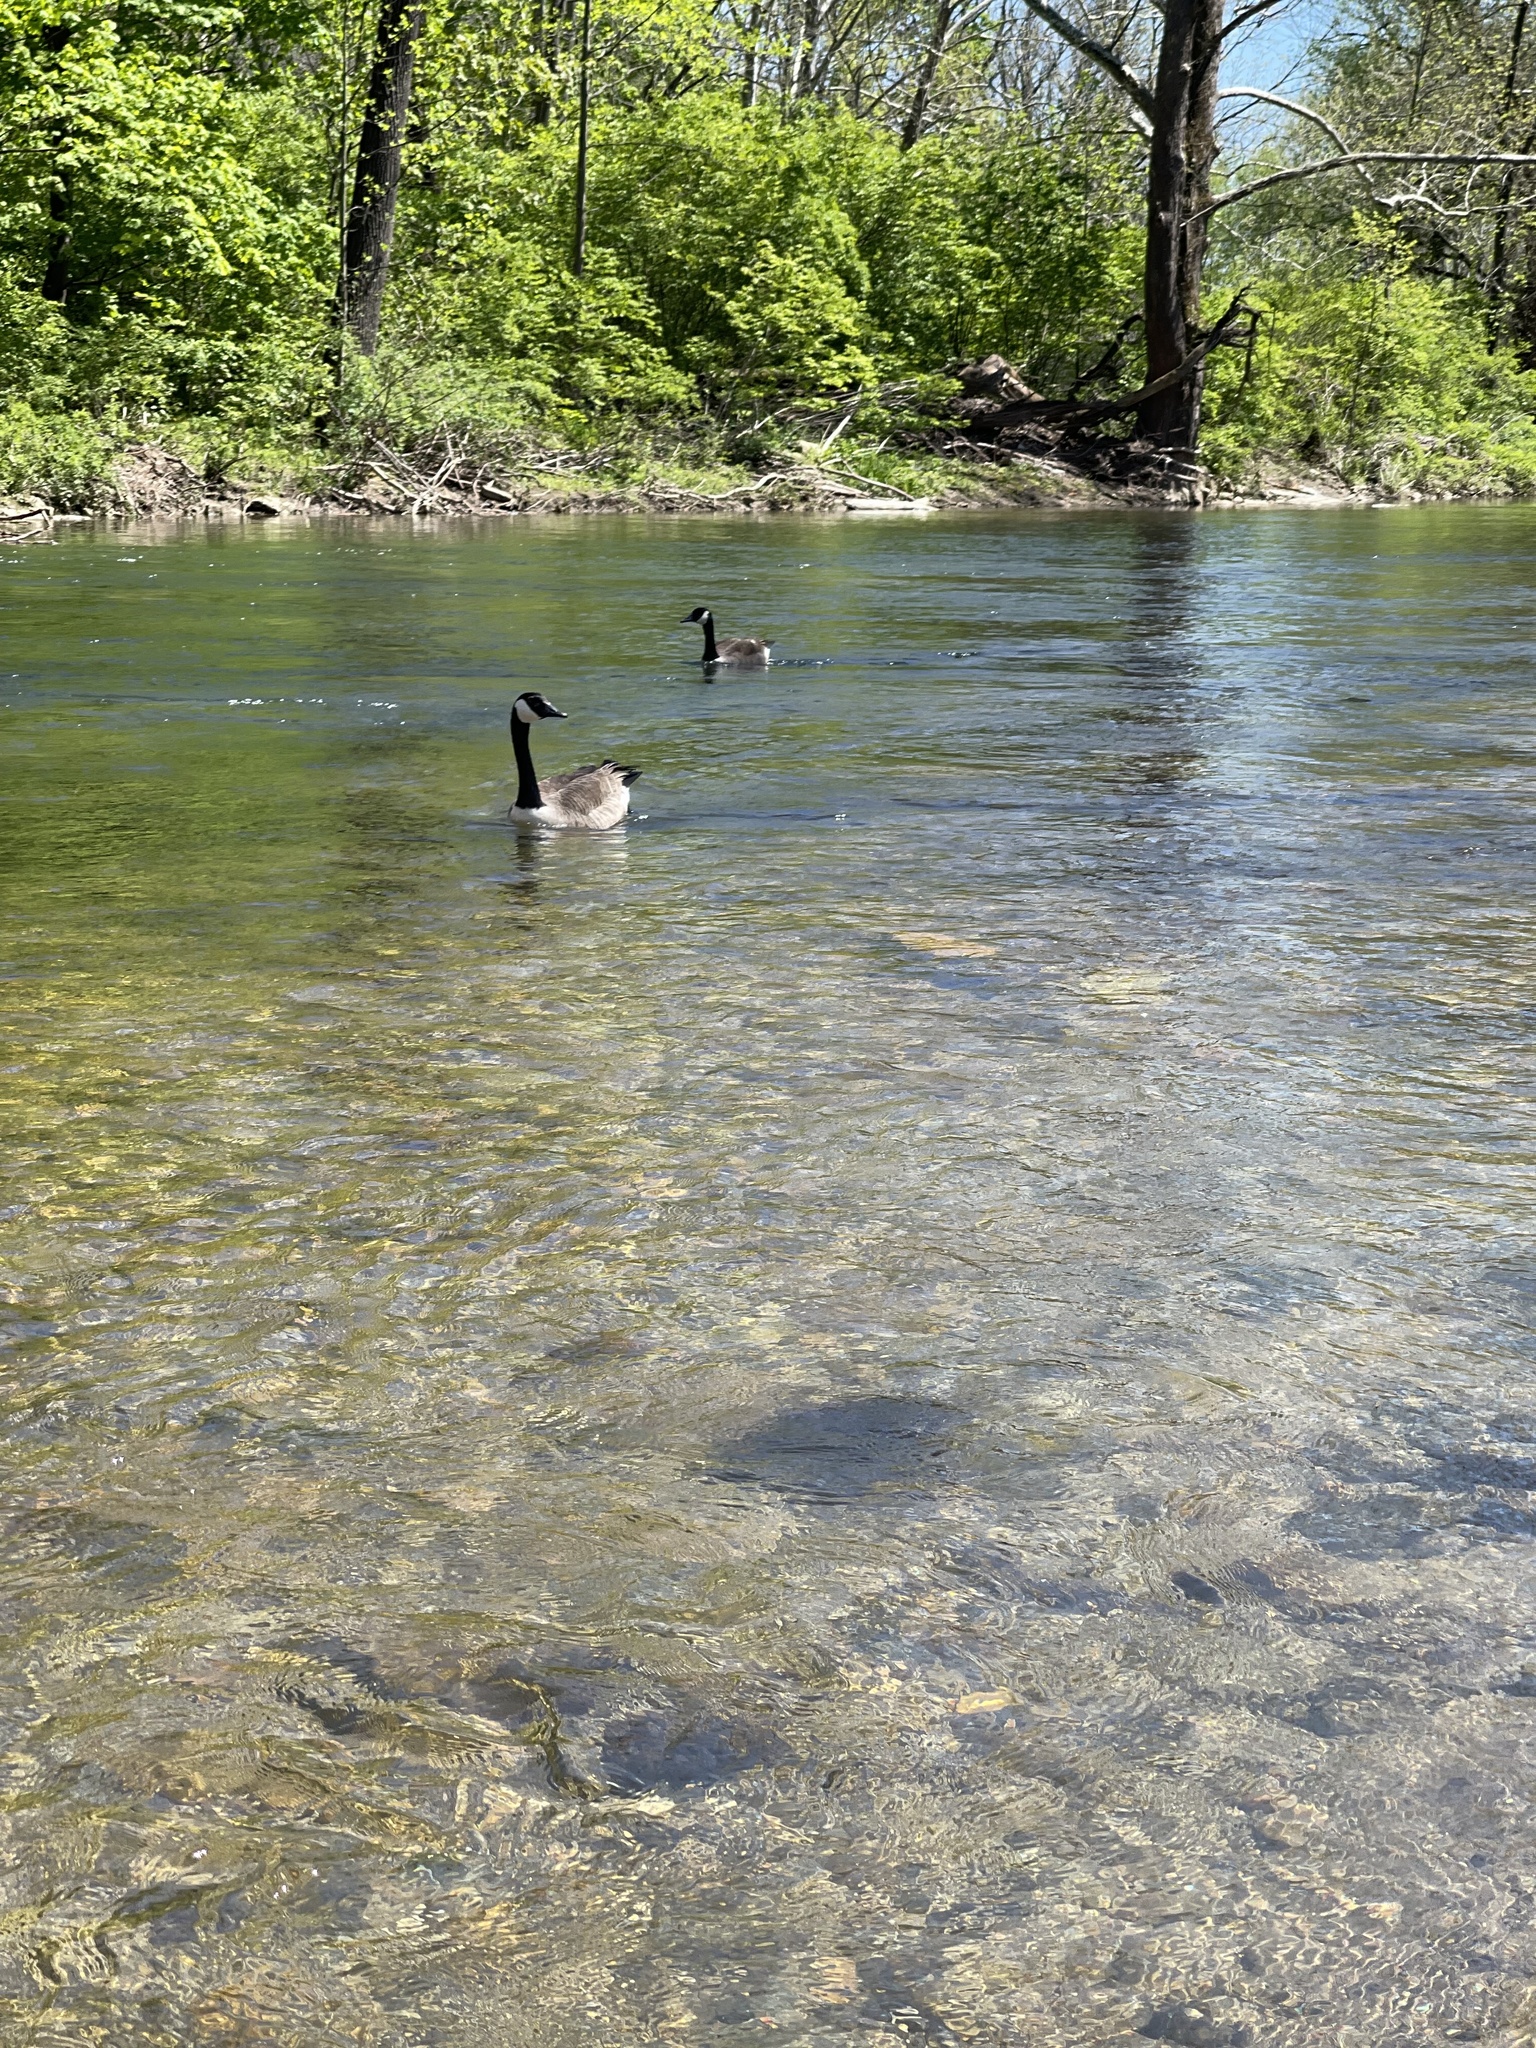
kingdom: Animalia
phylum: Chordata
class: Aves
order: Anseriformes
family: Anatidae
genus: Branta
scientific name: Branta canadensis
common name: Canada goose
